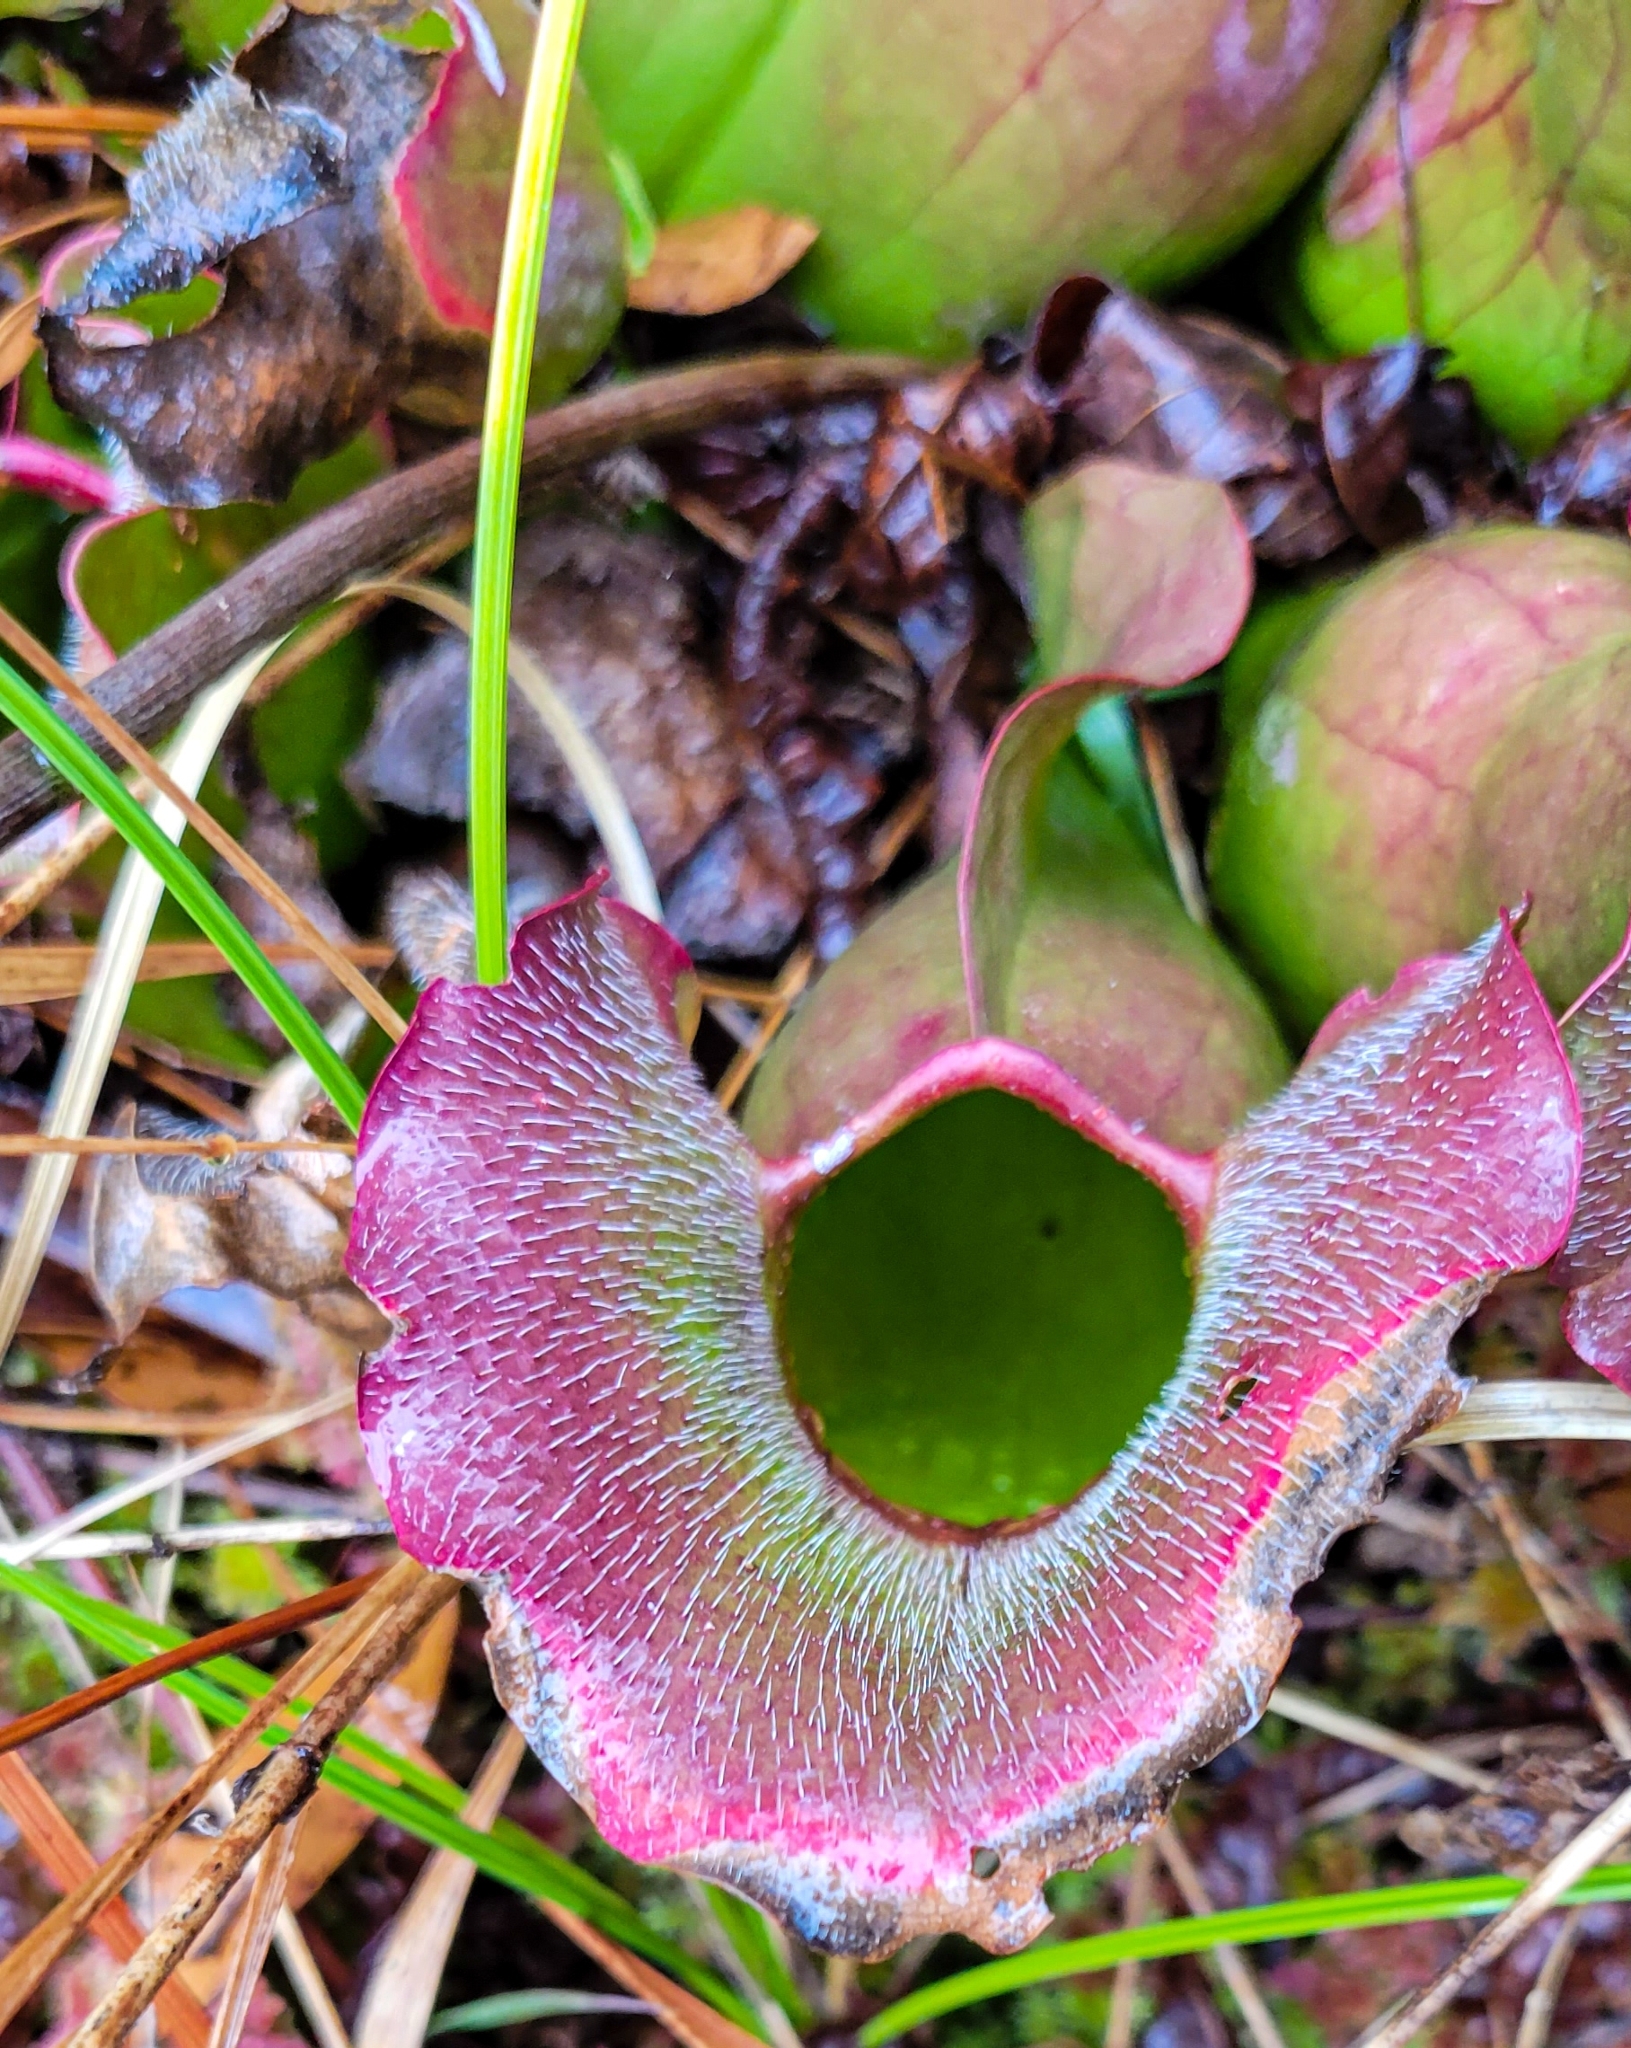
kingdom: Plantae
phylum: Tracheophyta
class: Magnoliopsida
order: Ericales
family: Sarraceniaceae
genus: Sarracenia
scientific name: Sarracenia purpurea
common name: Pitcherplant
